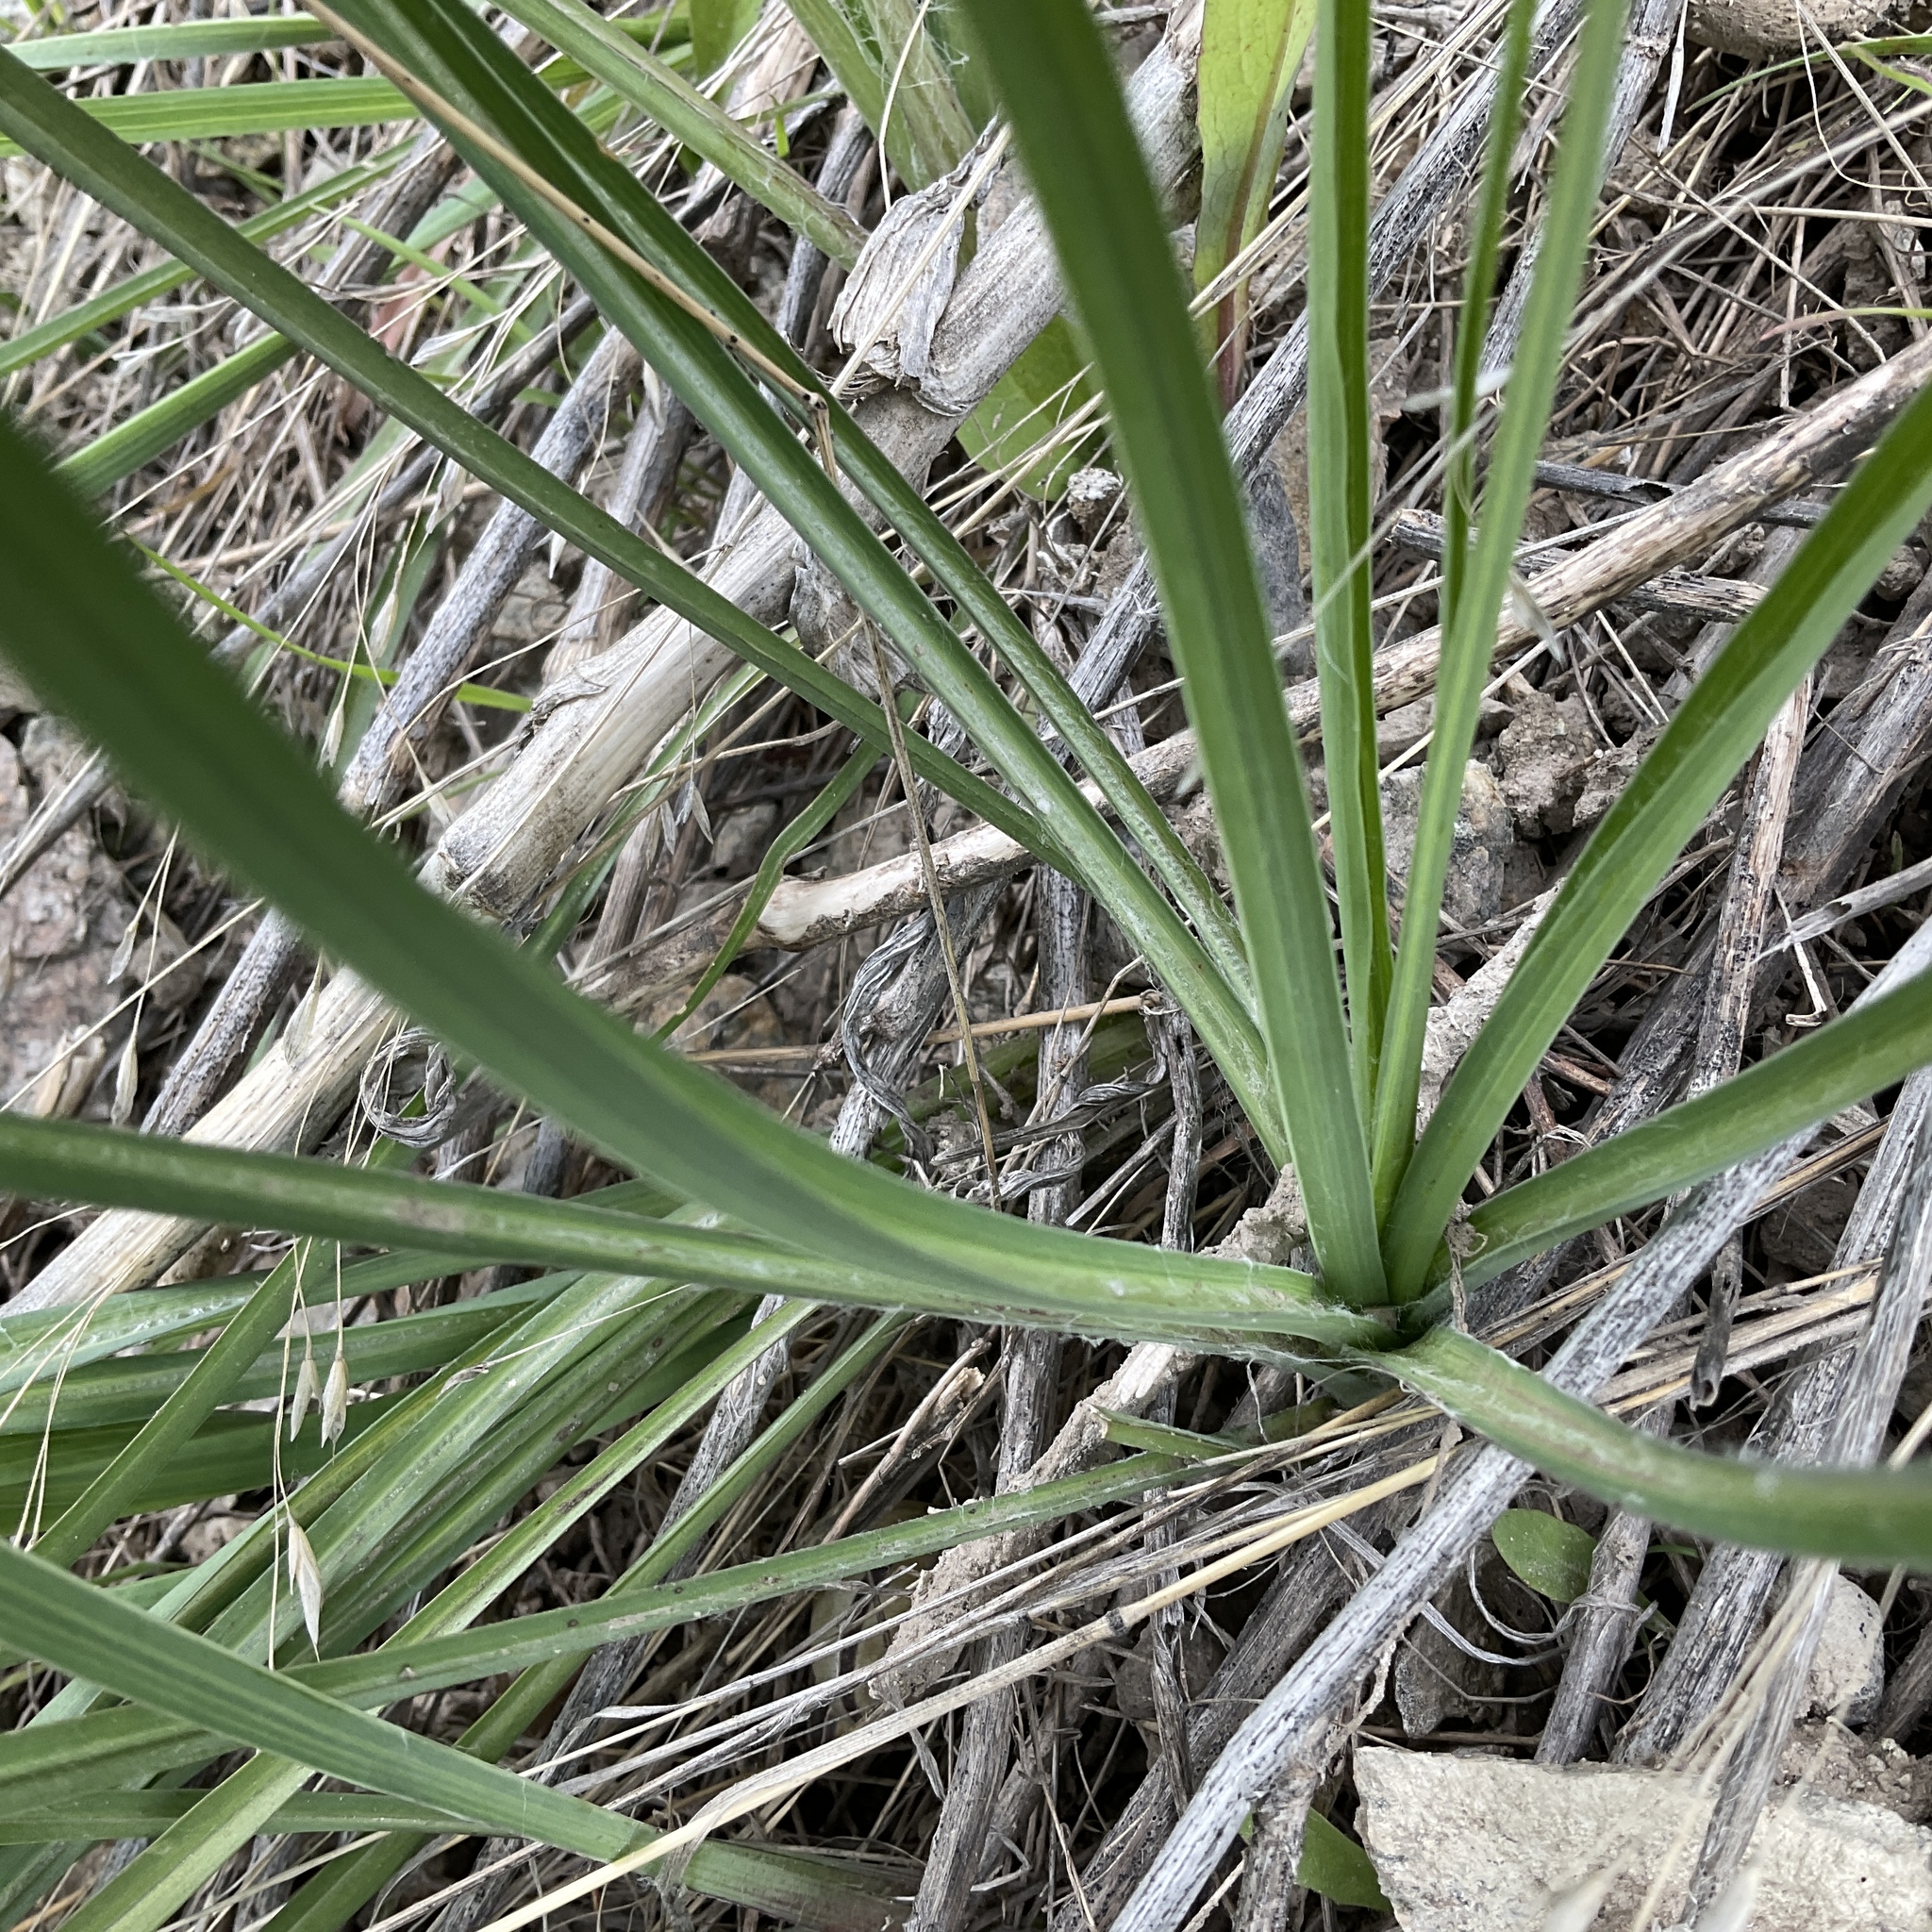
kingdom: Plantae
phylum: Tracheophyta
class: Magnoliopsida
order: Asterales
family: Asteraceae
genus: Tragopogon
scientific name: Tragopogon dubius
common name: Yellow salsify
